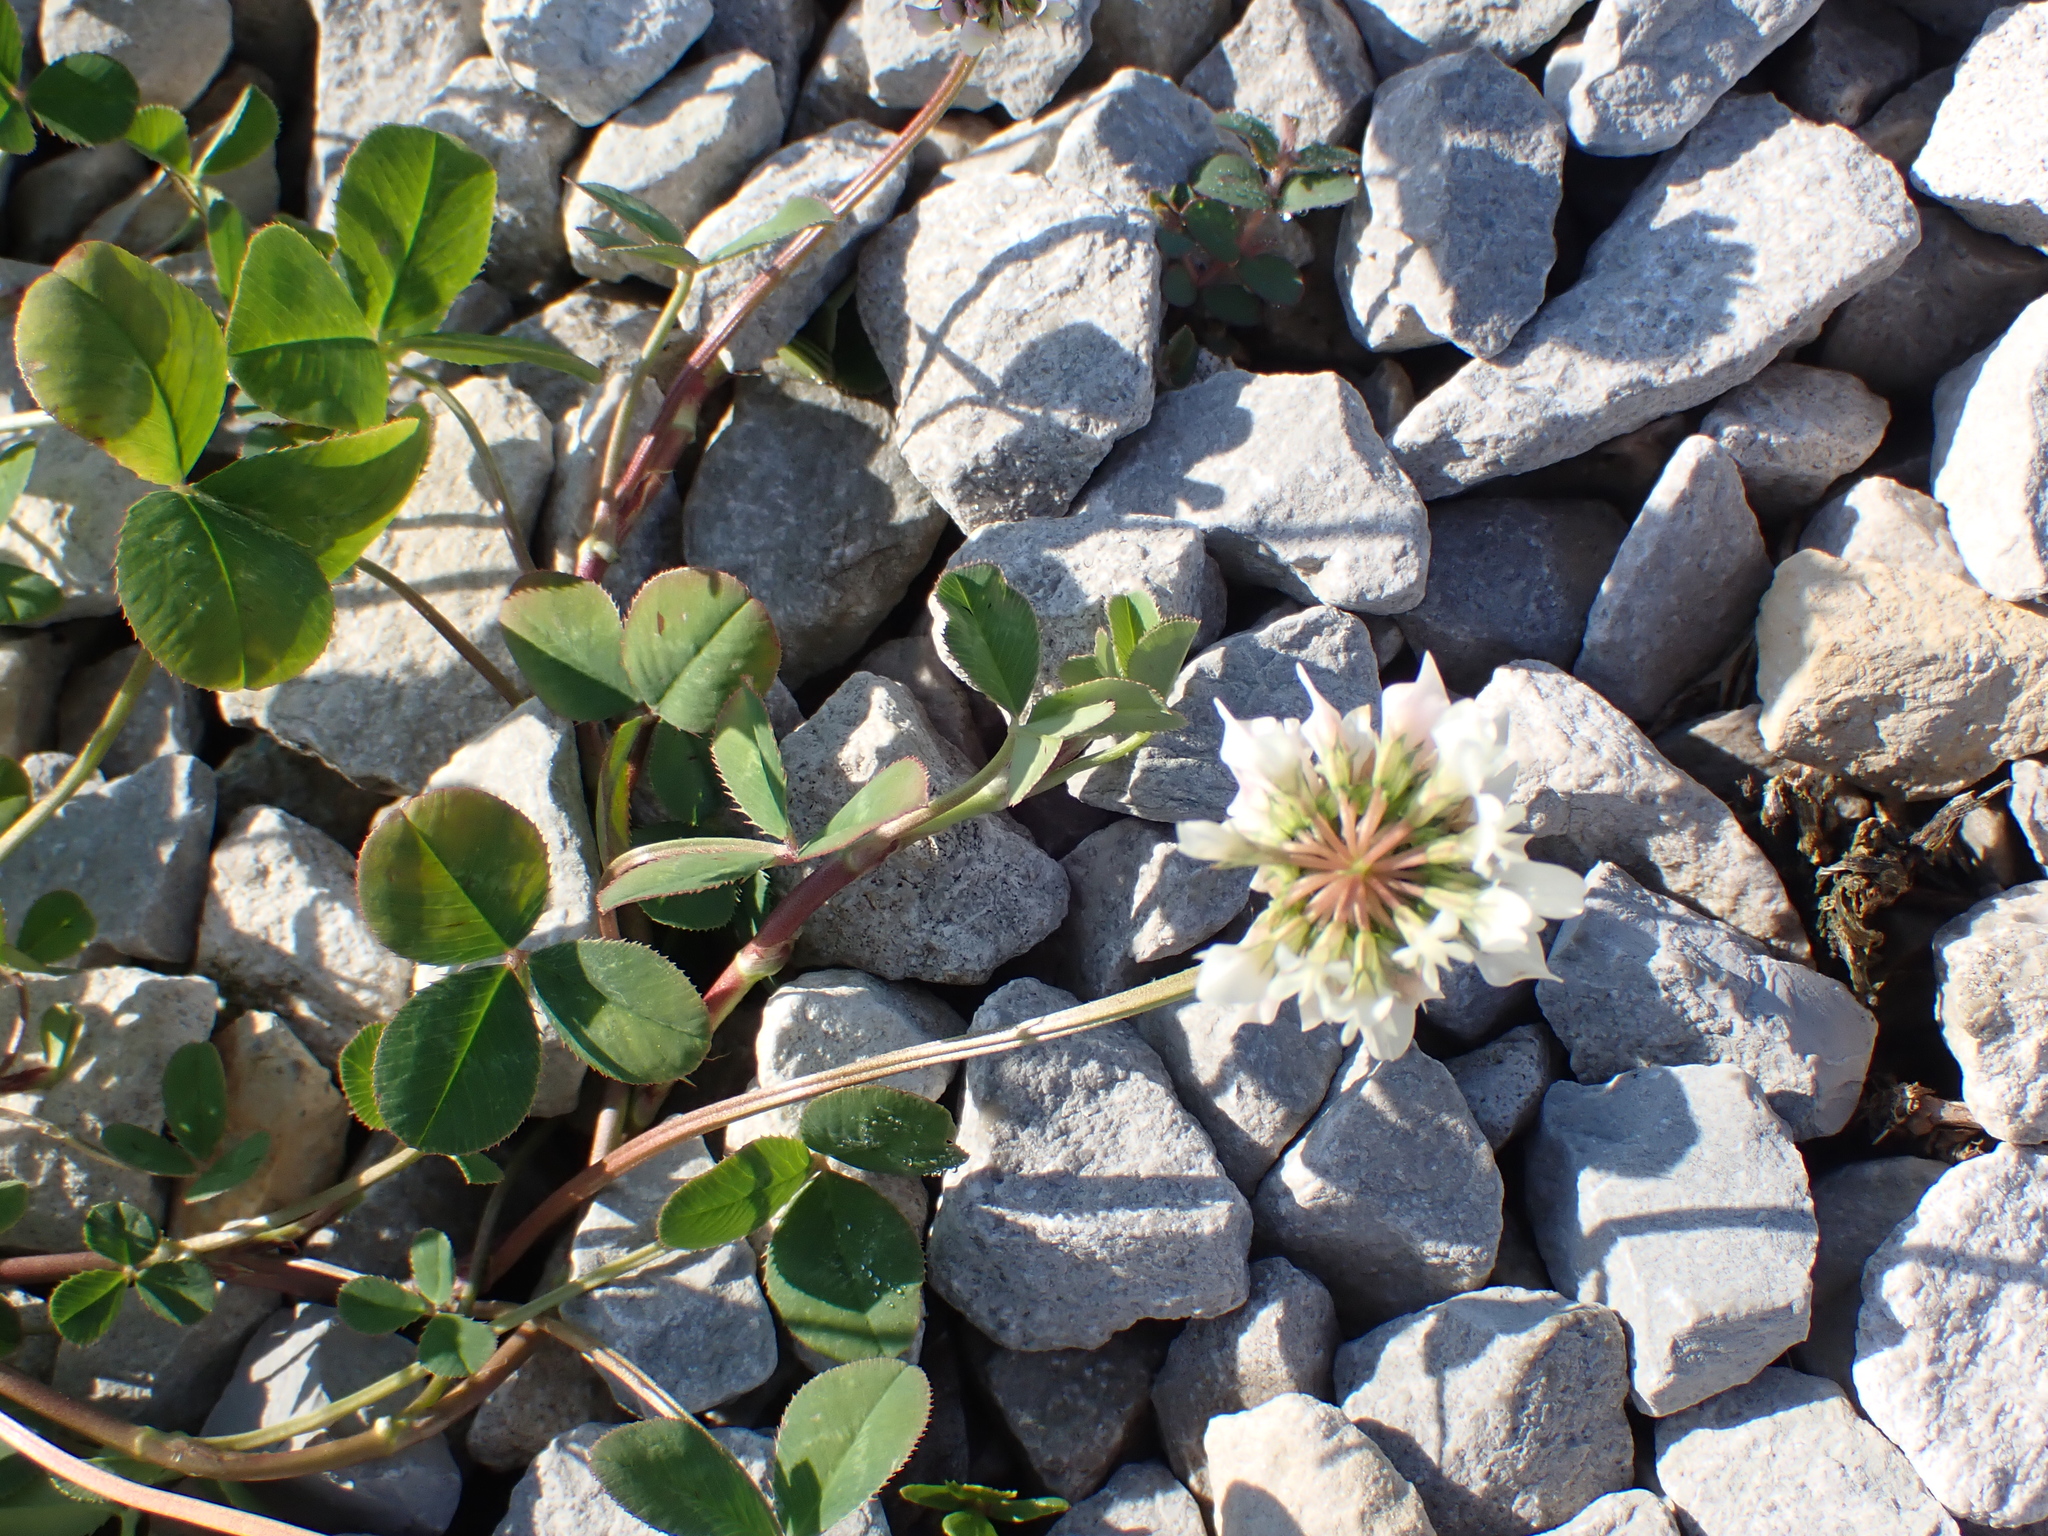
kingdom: Plantae
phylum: Tracheophyta
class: Magnoliopsida
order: Fabales
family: Fabaceae
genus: Trifolium
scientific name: Trifolium repens
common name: White clover
